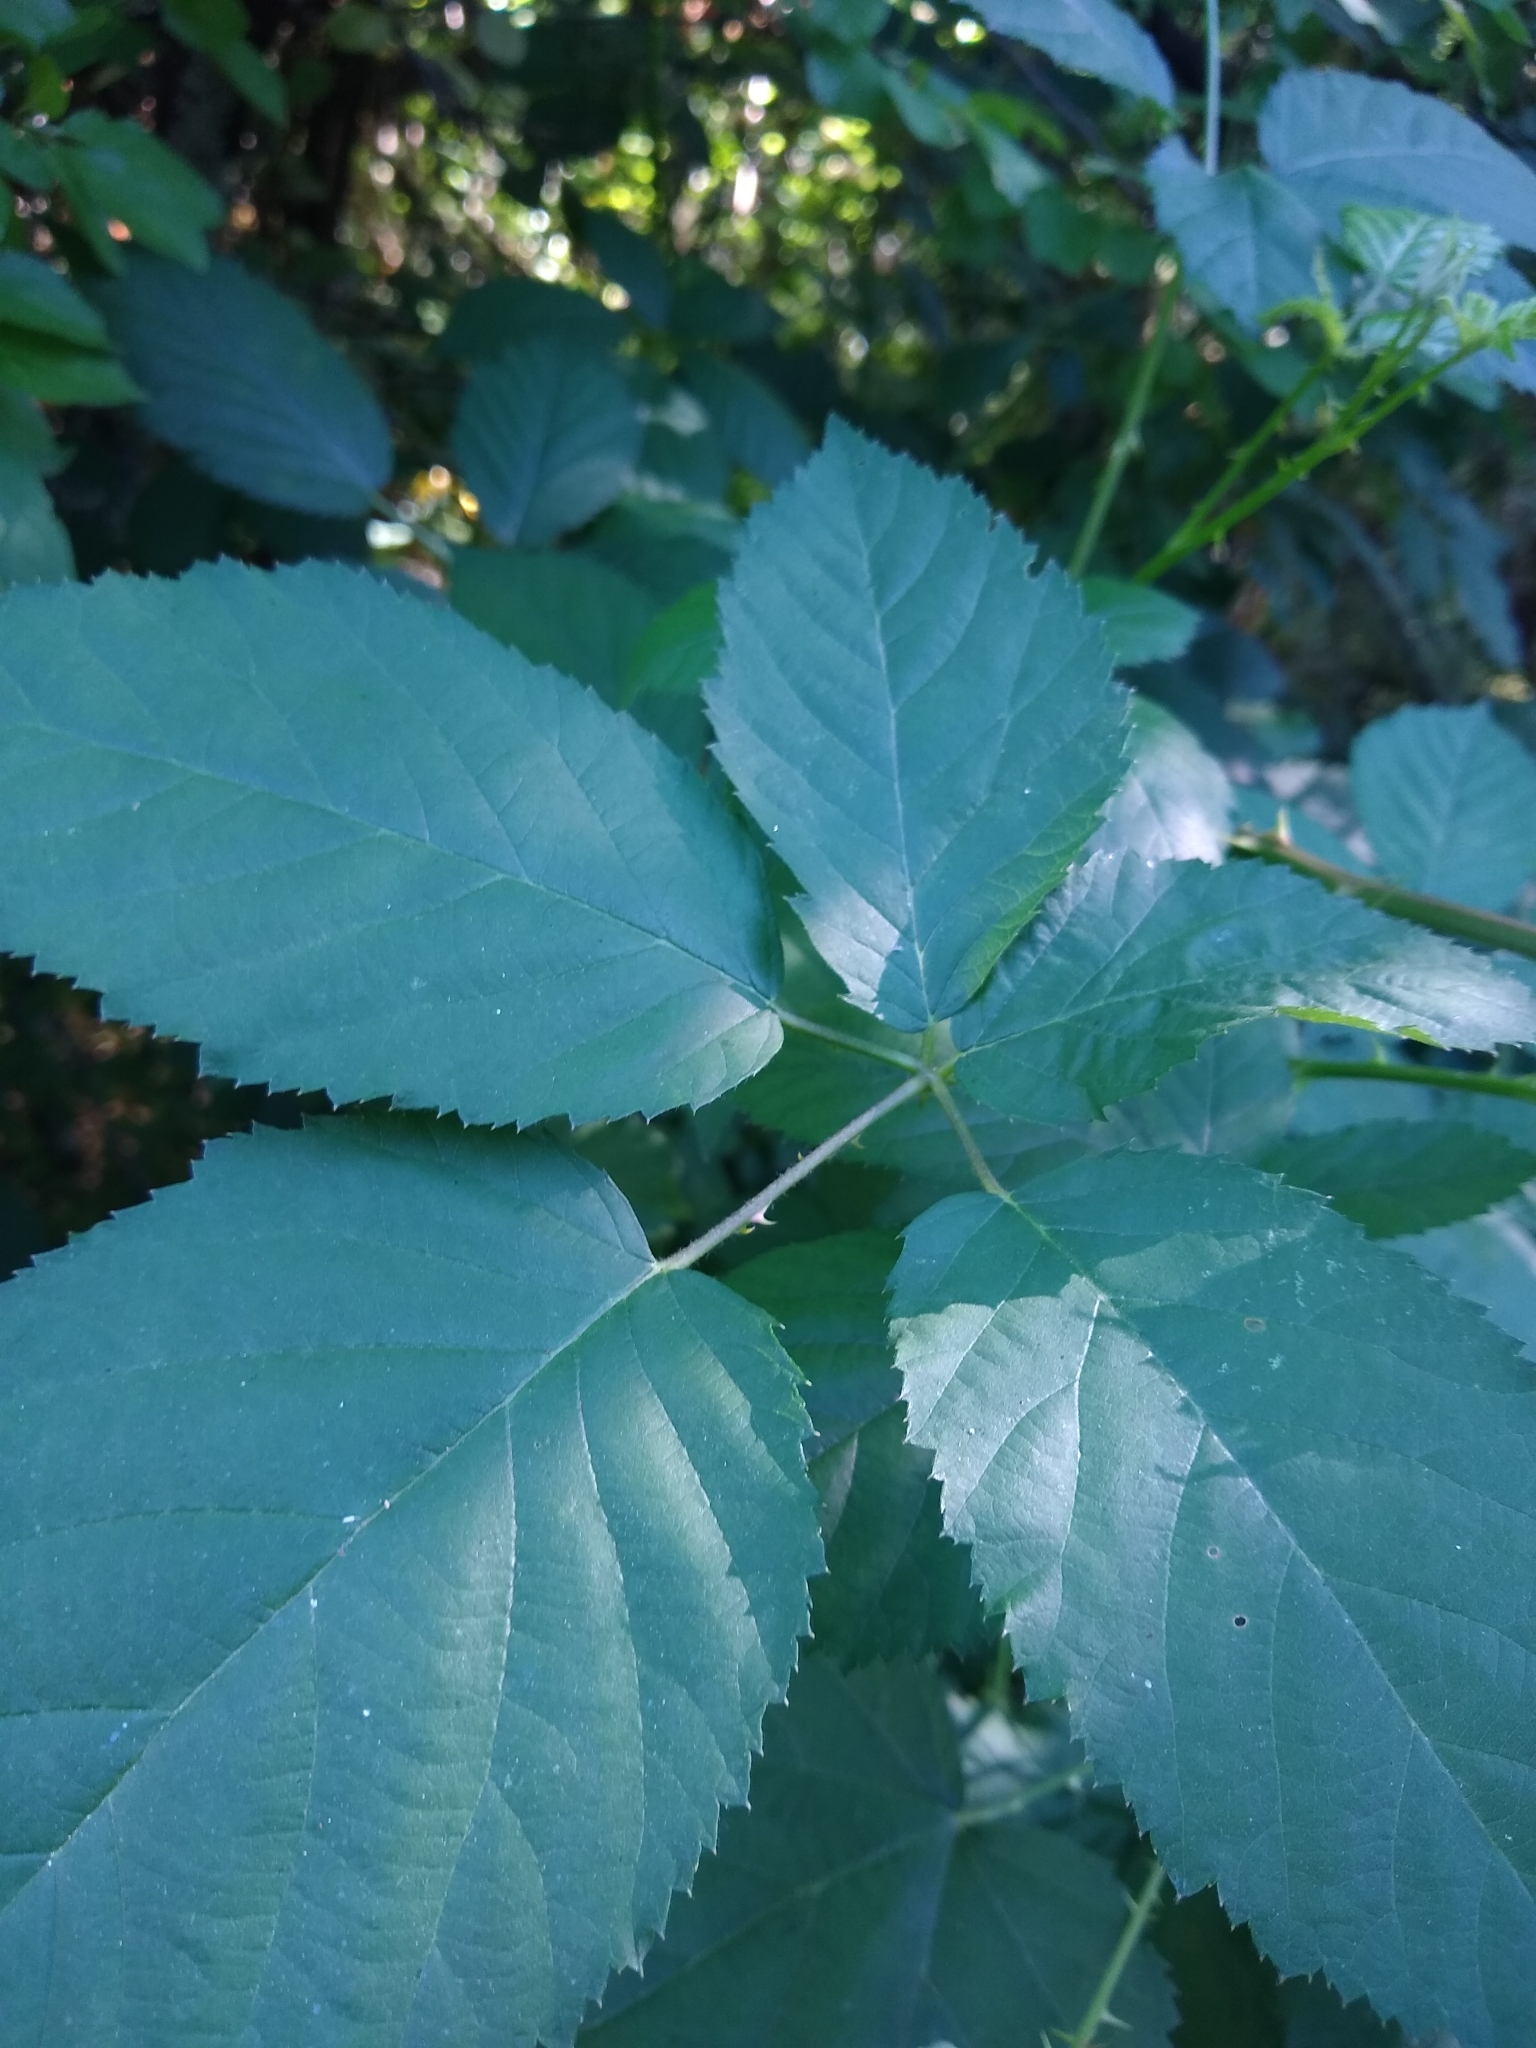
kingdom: Plantae
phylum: Tracheophyta
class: Magnoliopsida
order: Rosales
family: Rosaceae
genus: Rubus
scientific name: Rubus bifrons
